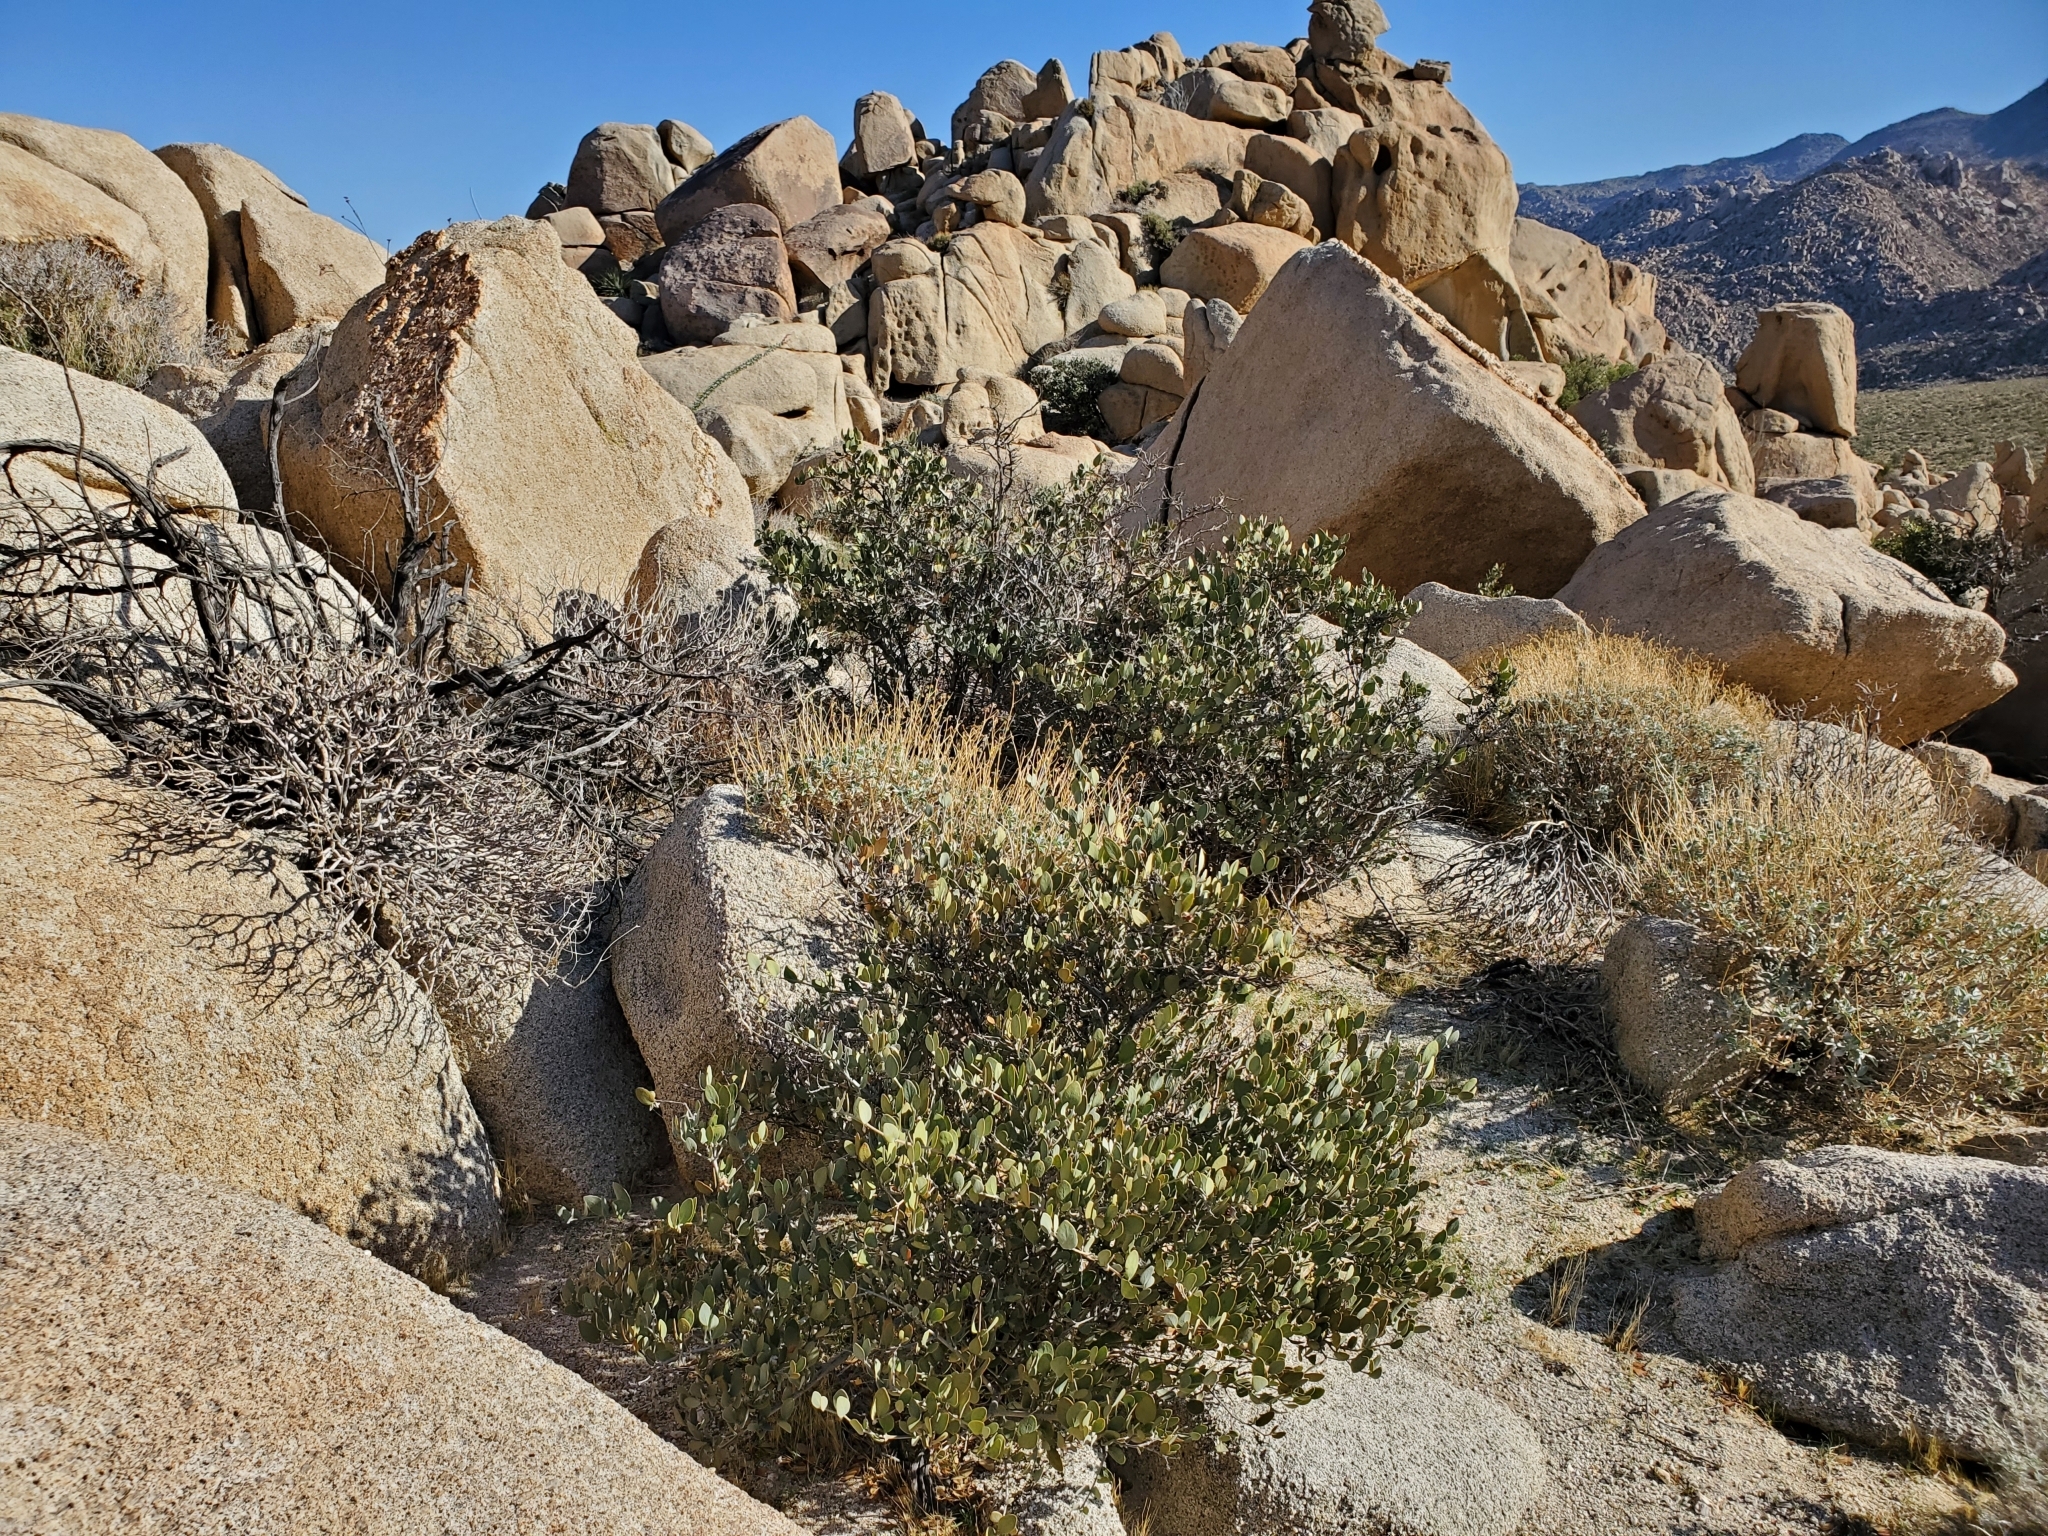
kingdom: Plantae
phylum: Tracheophyta
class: Magnoliopsida
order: Caryophyllales
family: Simmondsiaceae
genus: Simmondsia
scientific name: Simmondsia chinensis
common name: Jojoba
